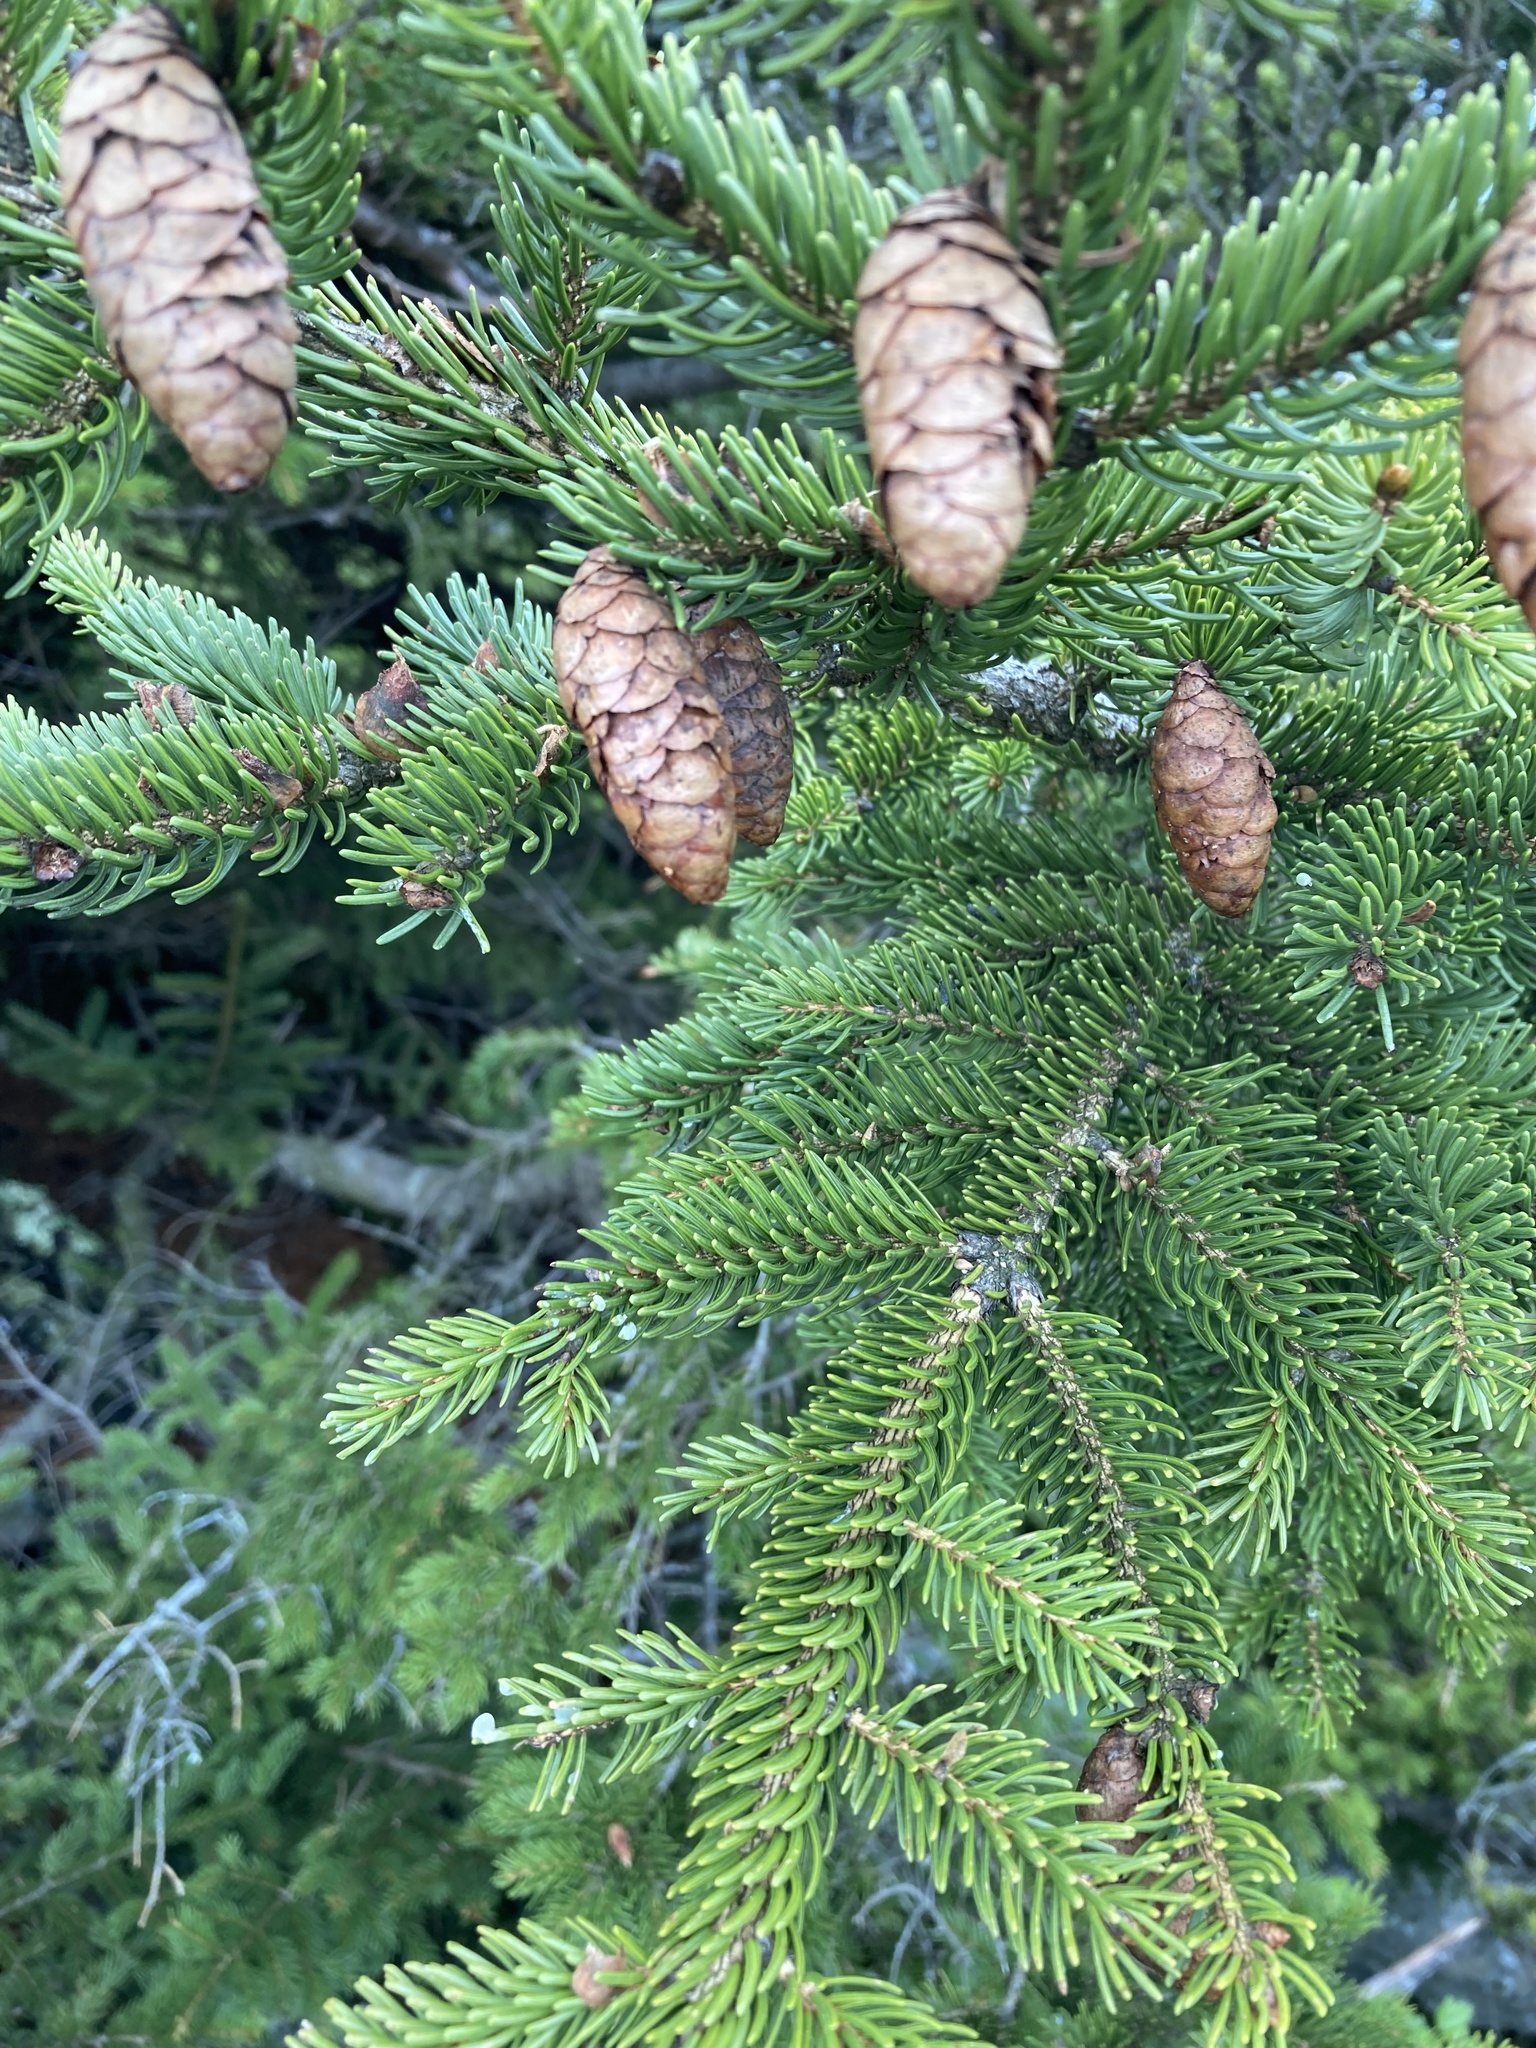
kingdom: Plantae
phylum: Tracheophyta
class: Pinopsida
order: Pinales
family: Pinaceae
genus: Picea
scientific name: Picea rubens
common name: Red spruce
